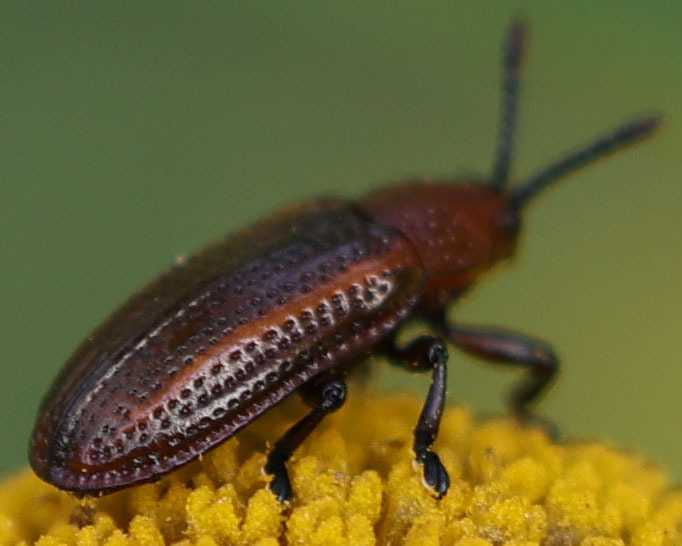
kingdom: Animalia
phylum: Arthropoda
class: Insecta
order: Coleoptera
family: Chrysomelidae
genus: Microrhopala
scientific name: Microrhopala vittata
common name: Goldenrod leaf miner beetle
